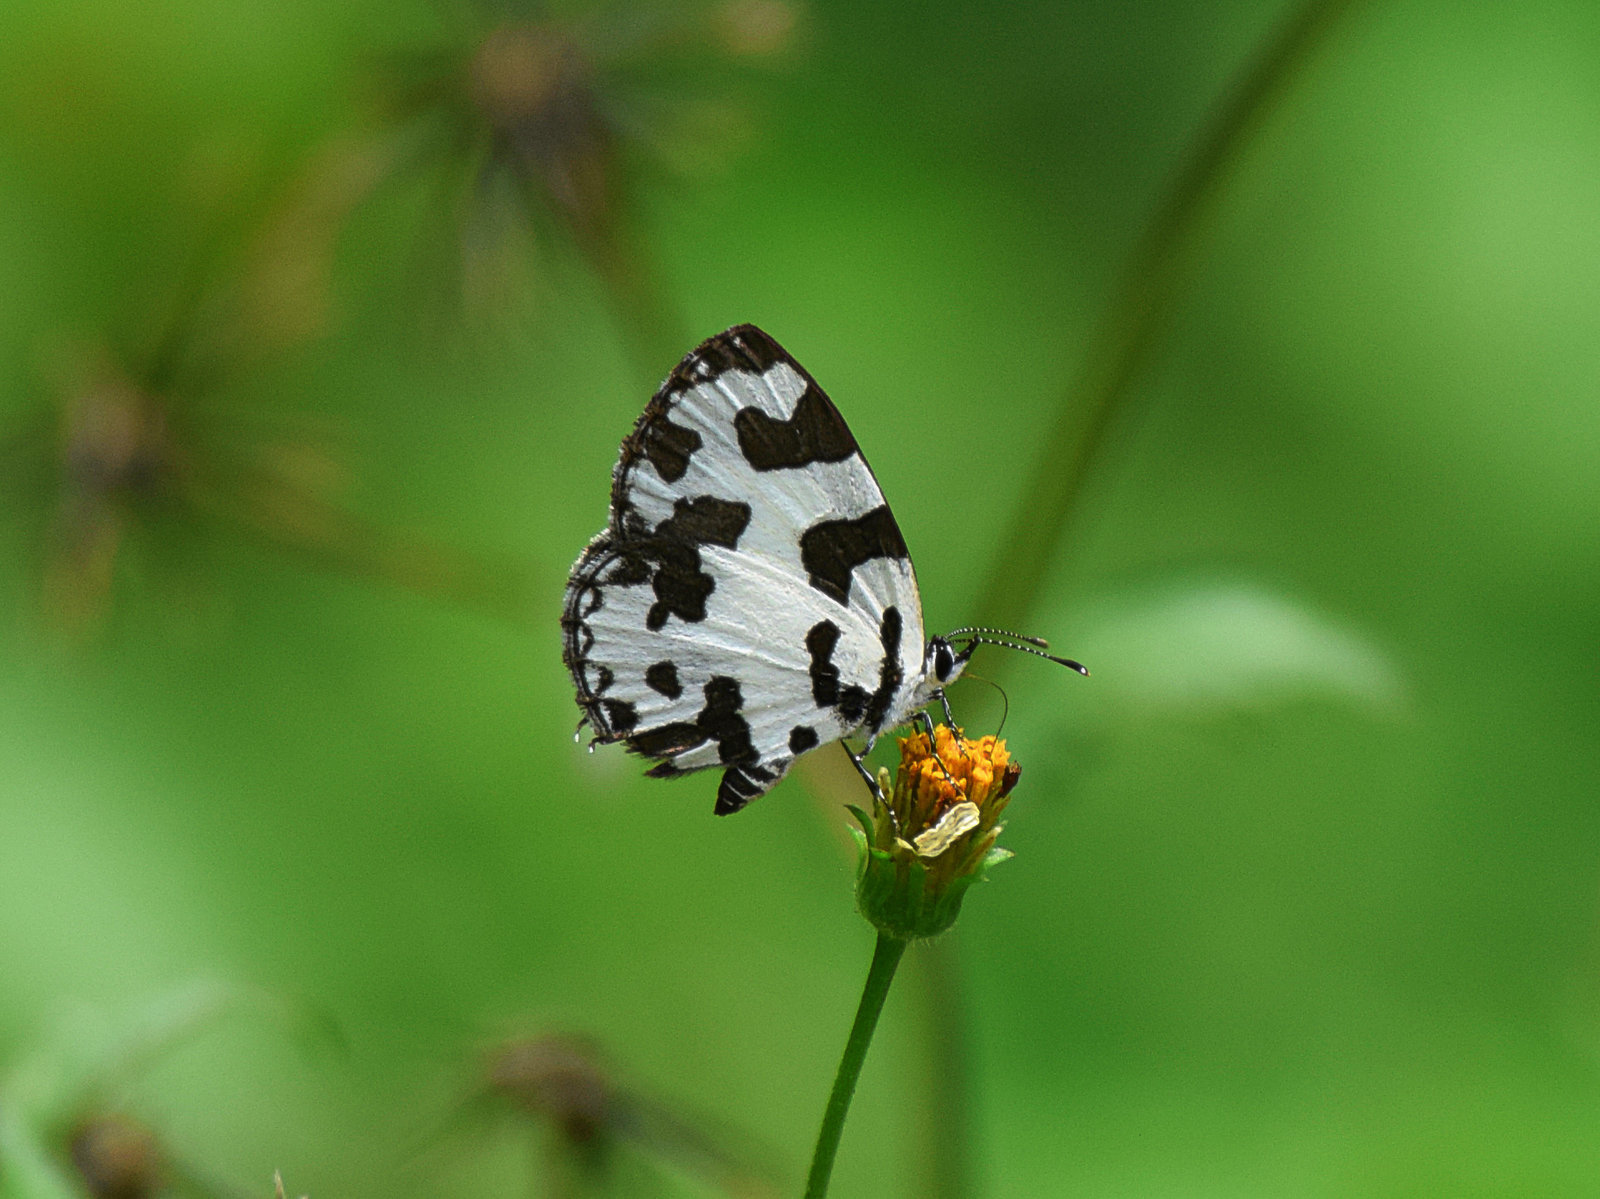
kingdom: Animalia
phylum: Arthropoda
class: Insecta
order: Lepidoptera
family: Lycaenidae
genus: Caleta
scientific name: Caleta decidia
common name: Angled pierrot
